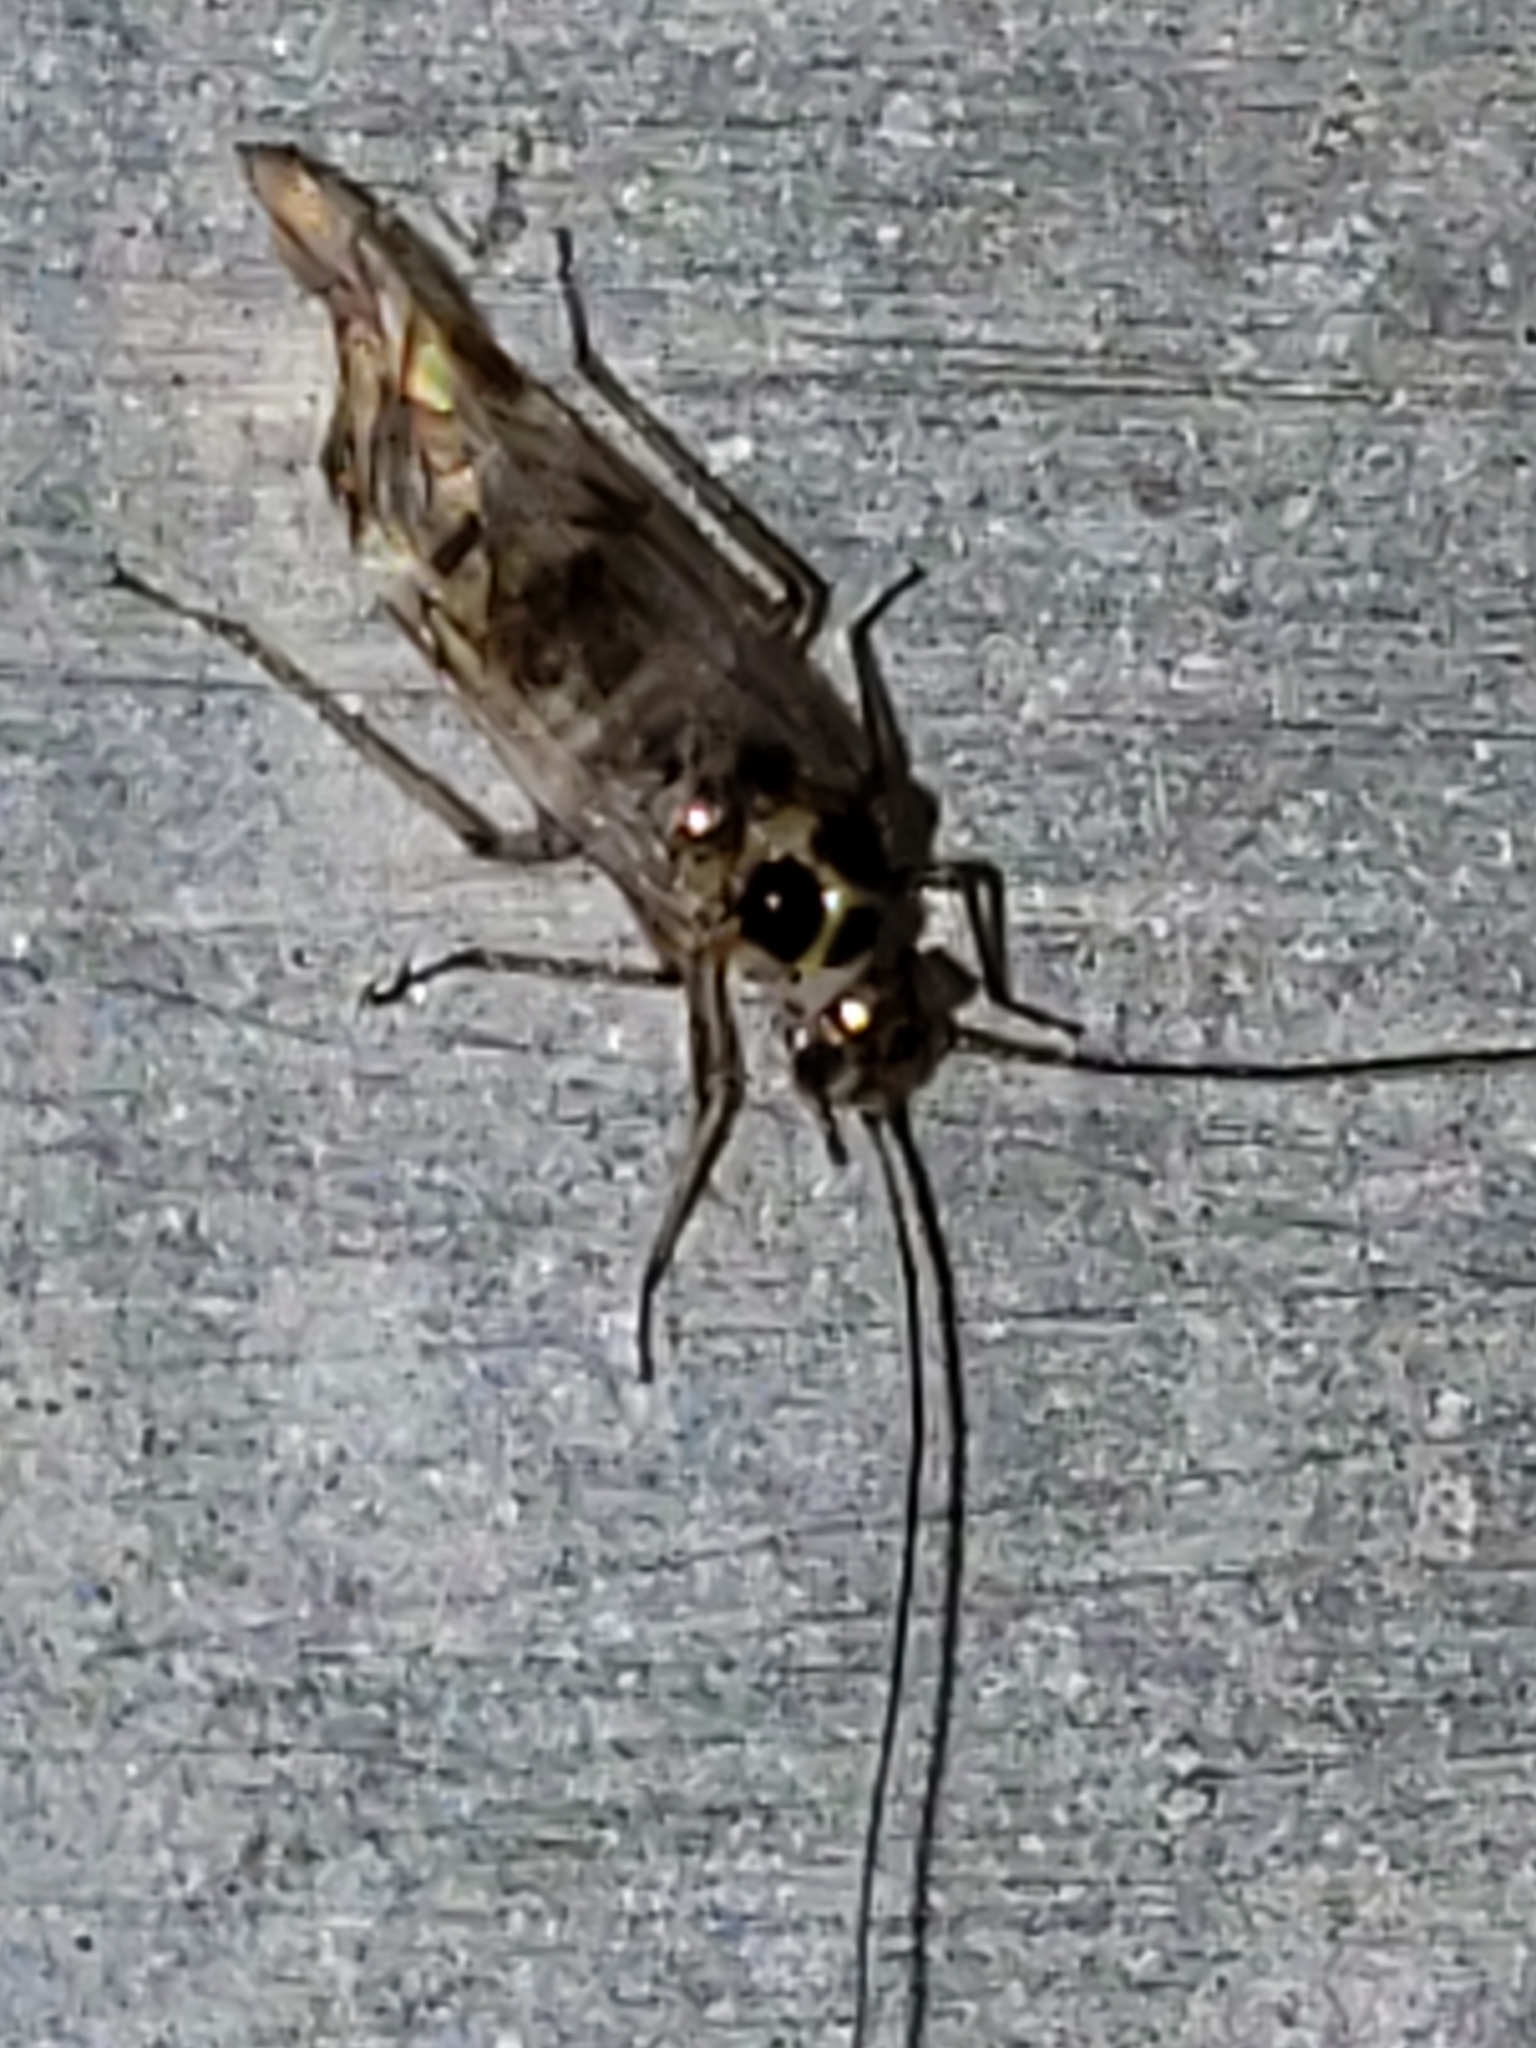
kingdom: Animalia
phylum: Arthropoda
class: Insecta
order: Psocodea
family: Dasydemellidae
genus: Teliapsocus
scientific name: Teliapsocus conterminus
